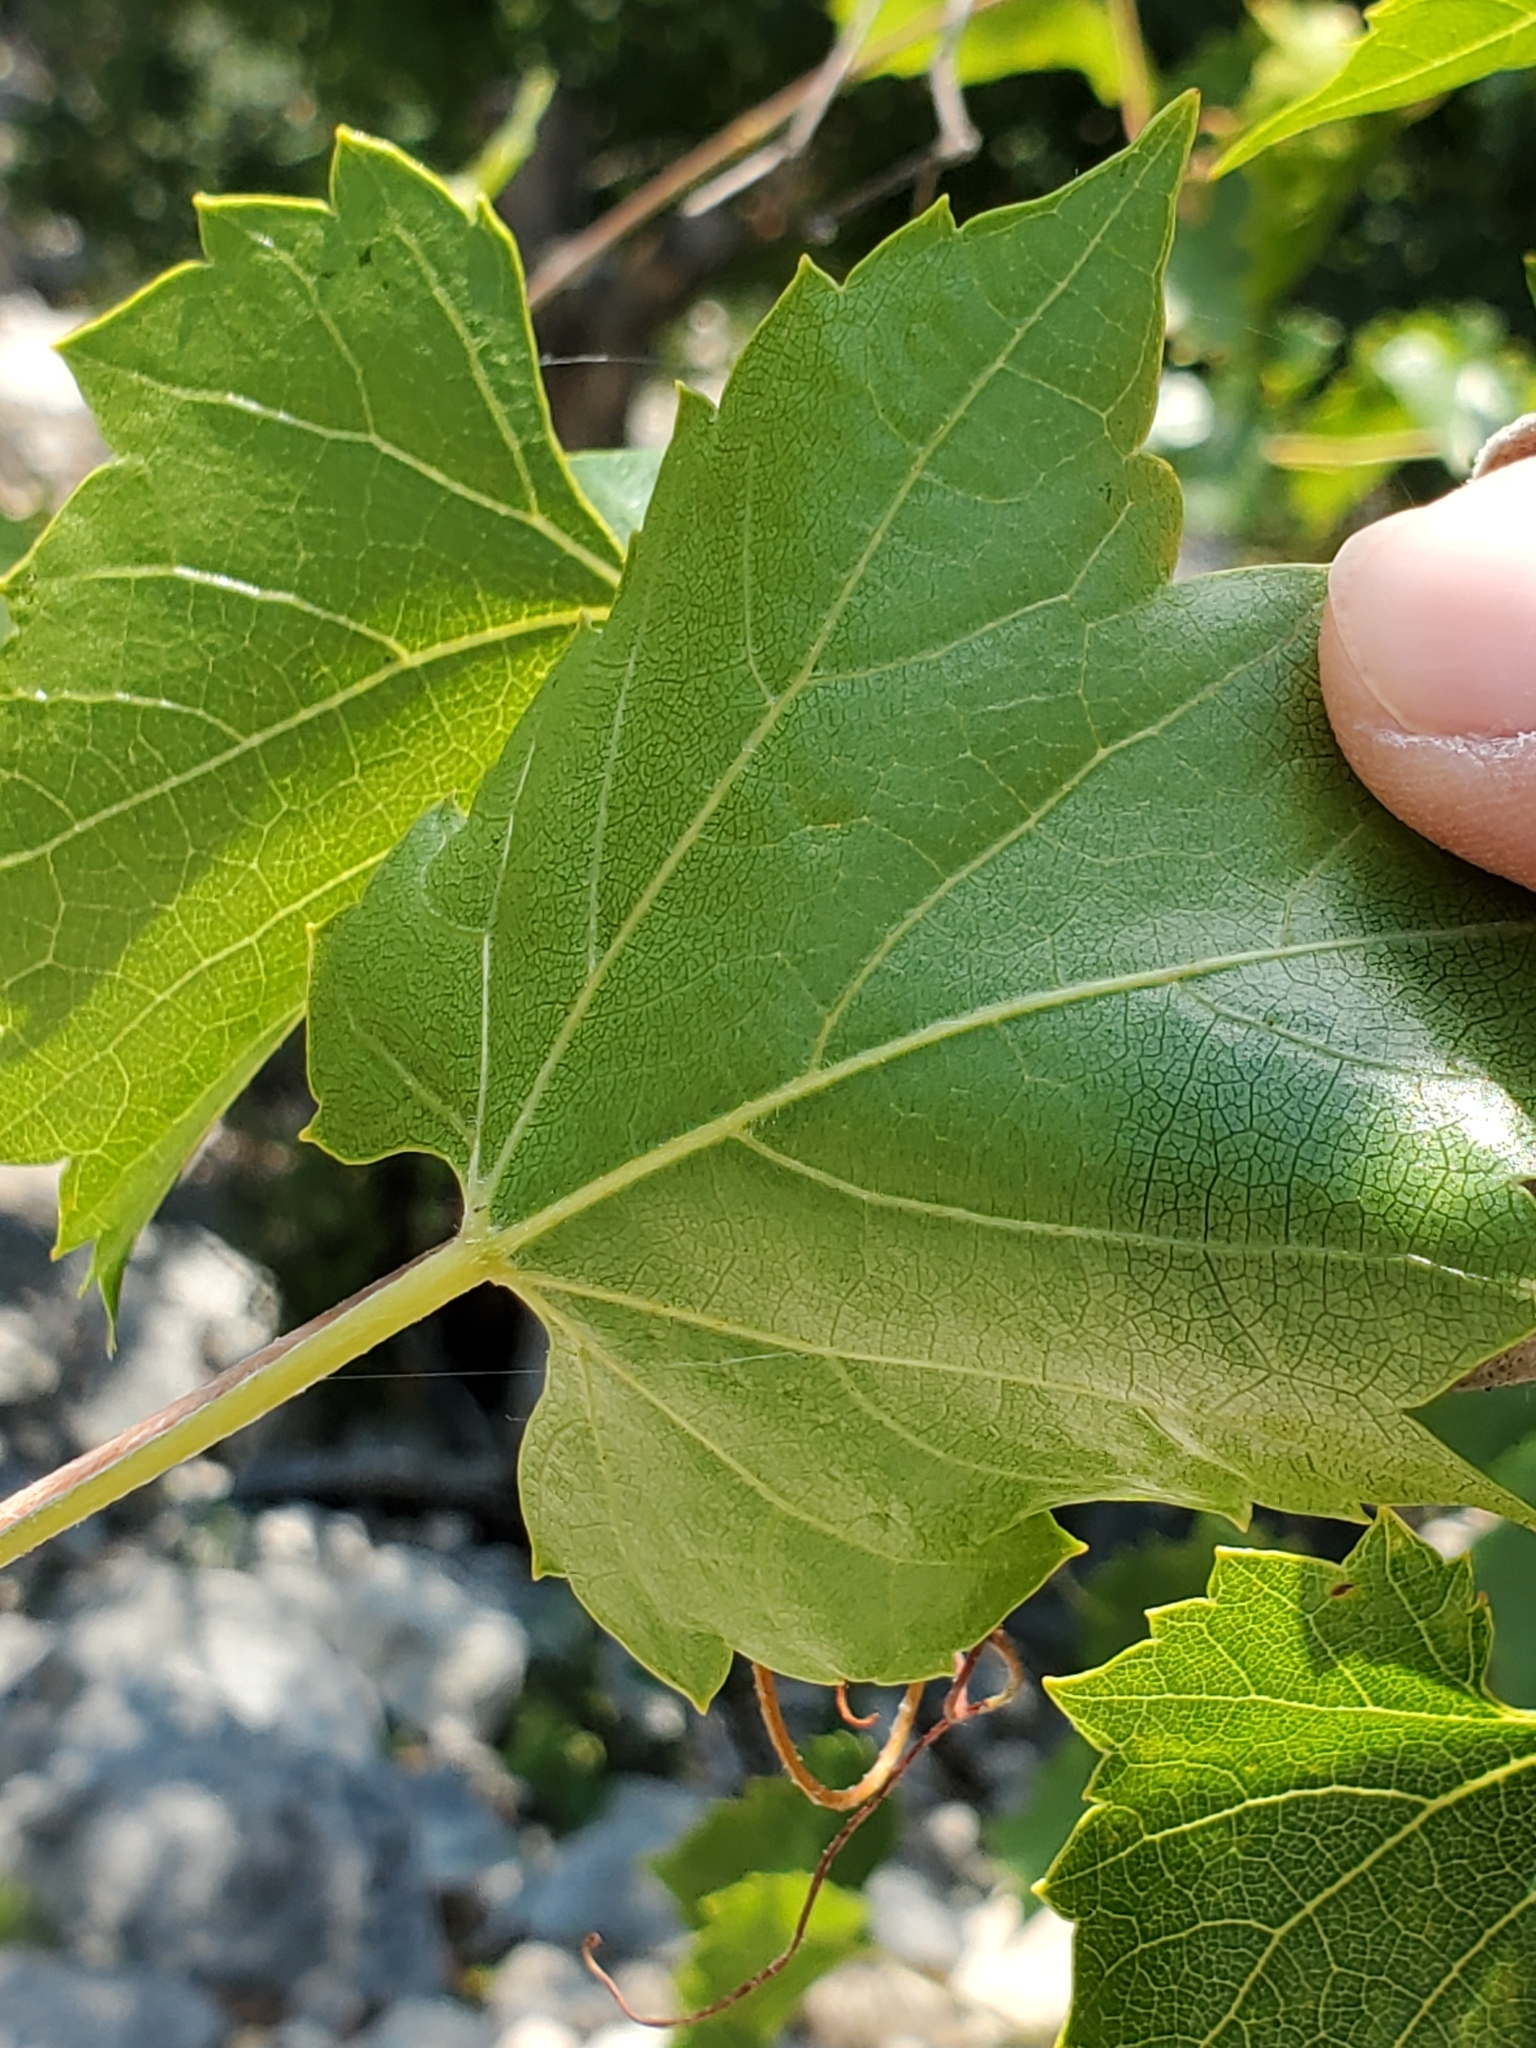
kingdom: Plantae
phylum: Tracheophyta
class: Magnoliopsida
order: Vitales
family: Vitaceae
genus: Vitis
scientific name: Vitis monticola
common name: Mountain grape
